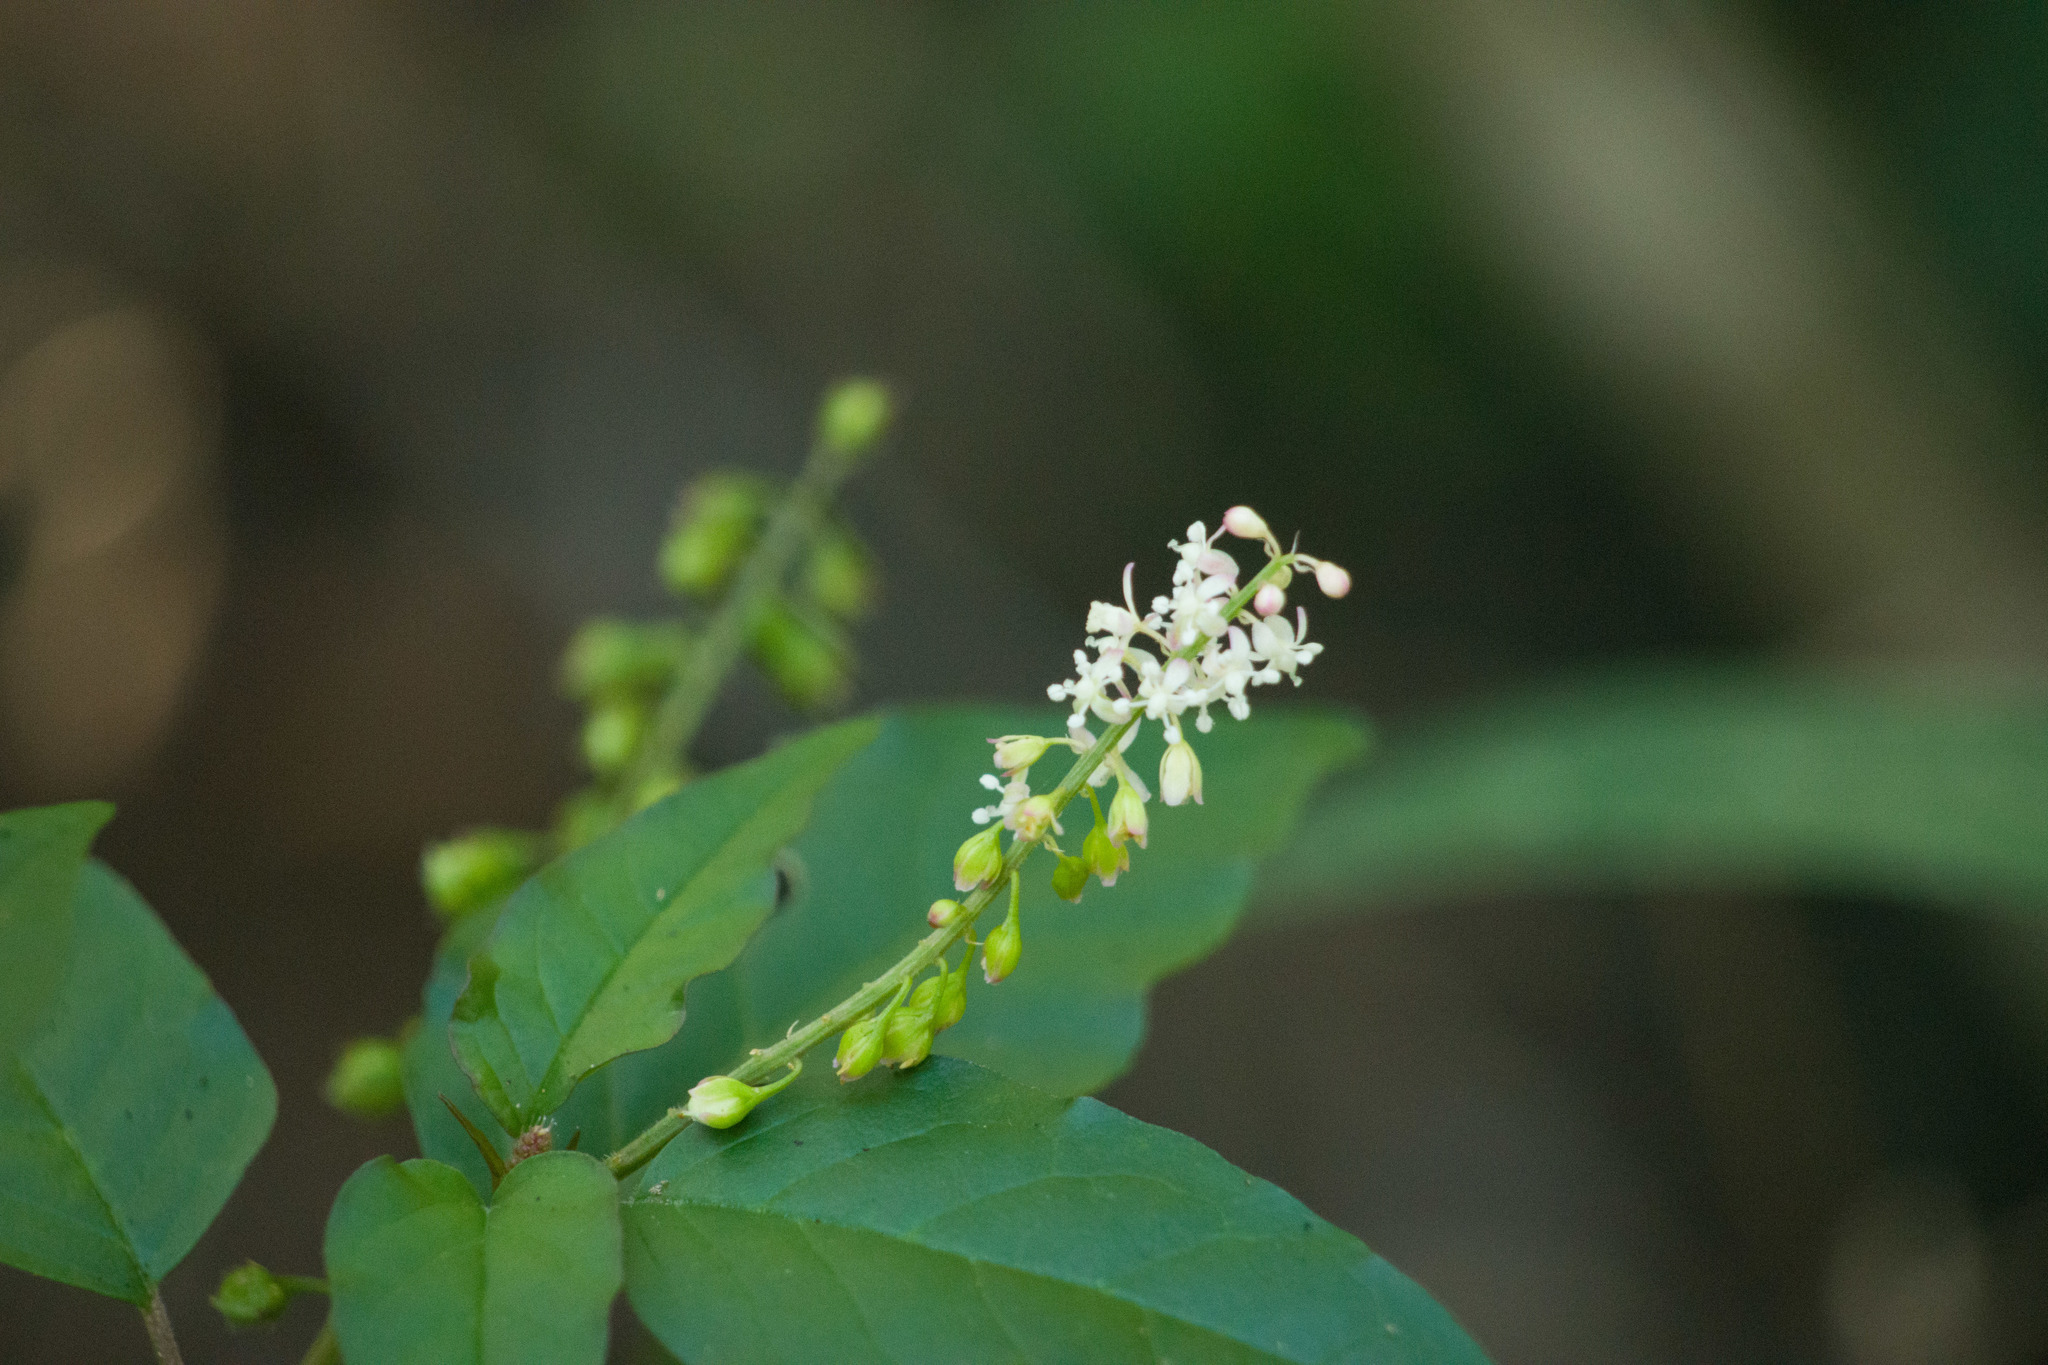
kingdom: Plantae
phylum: Tracheophyta
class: Magnoliopsida
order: Caryophyllales
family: Phytolaccaceae
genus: Rivina
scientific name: Rivina humilis
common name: Rougeplant
